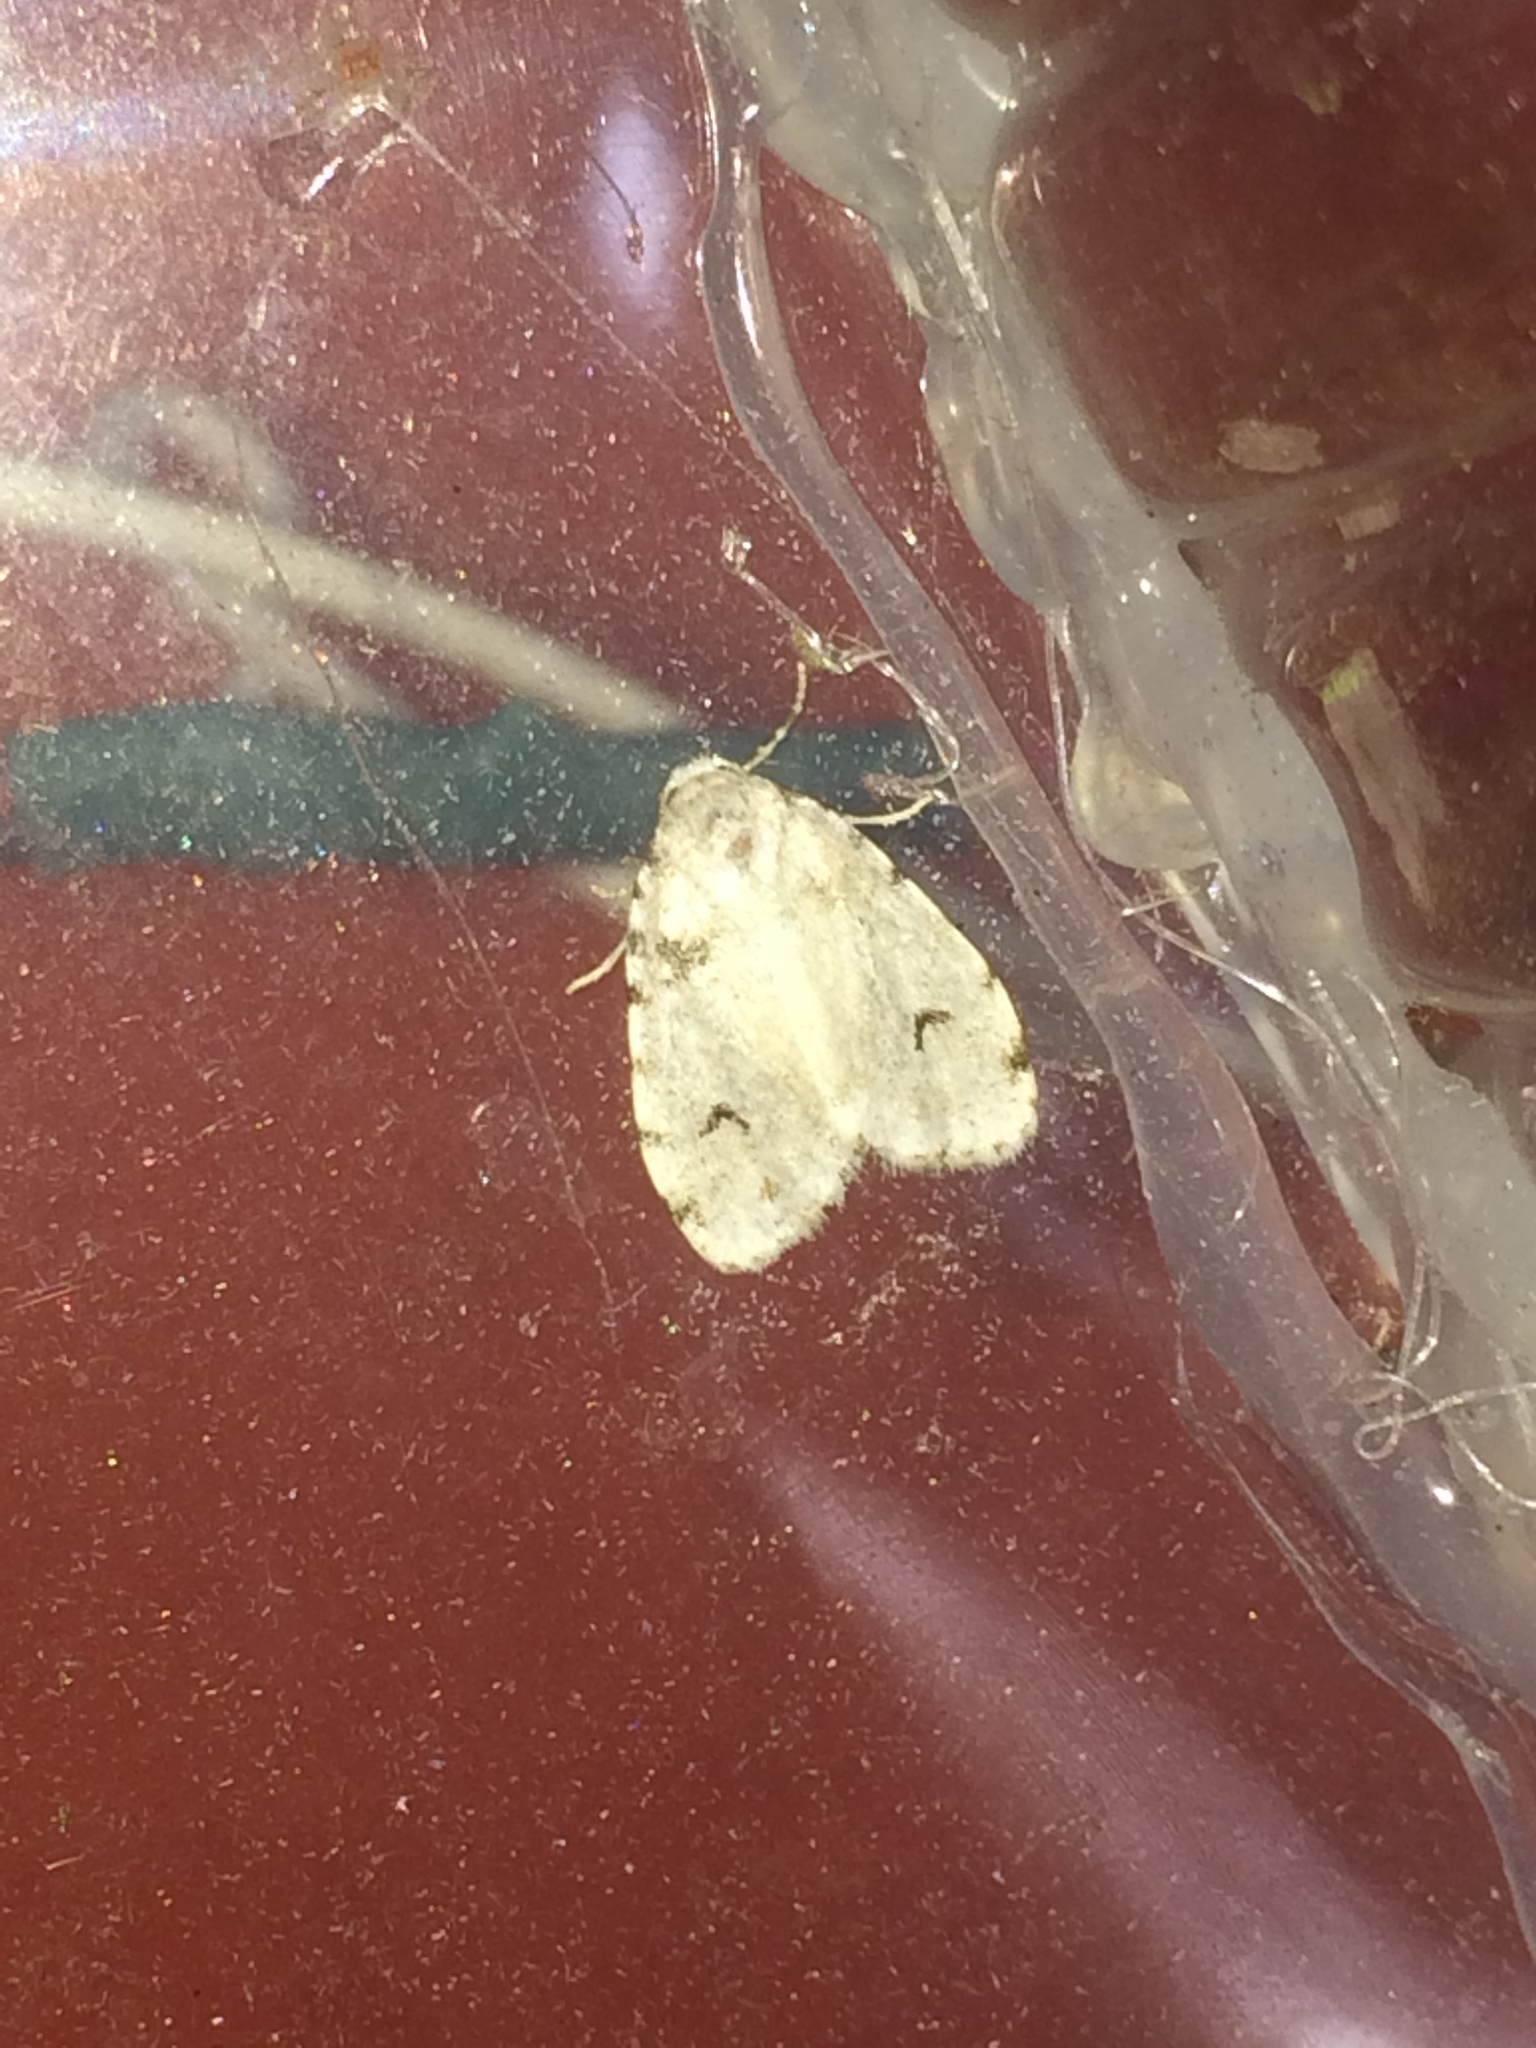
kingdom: Animalia
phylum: Arthropoda
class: Insecta
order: Lepidoptera
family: Erebidae
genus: Clemensia
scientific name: Clemensia ochreata
